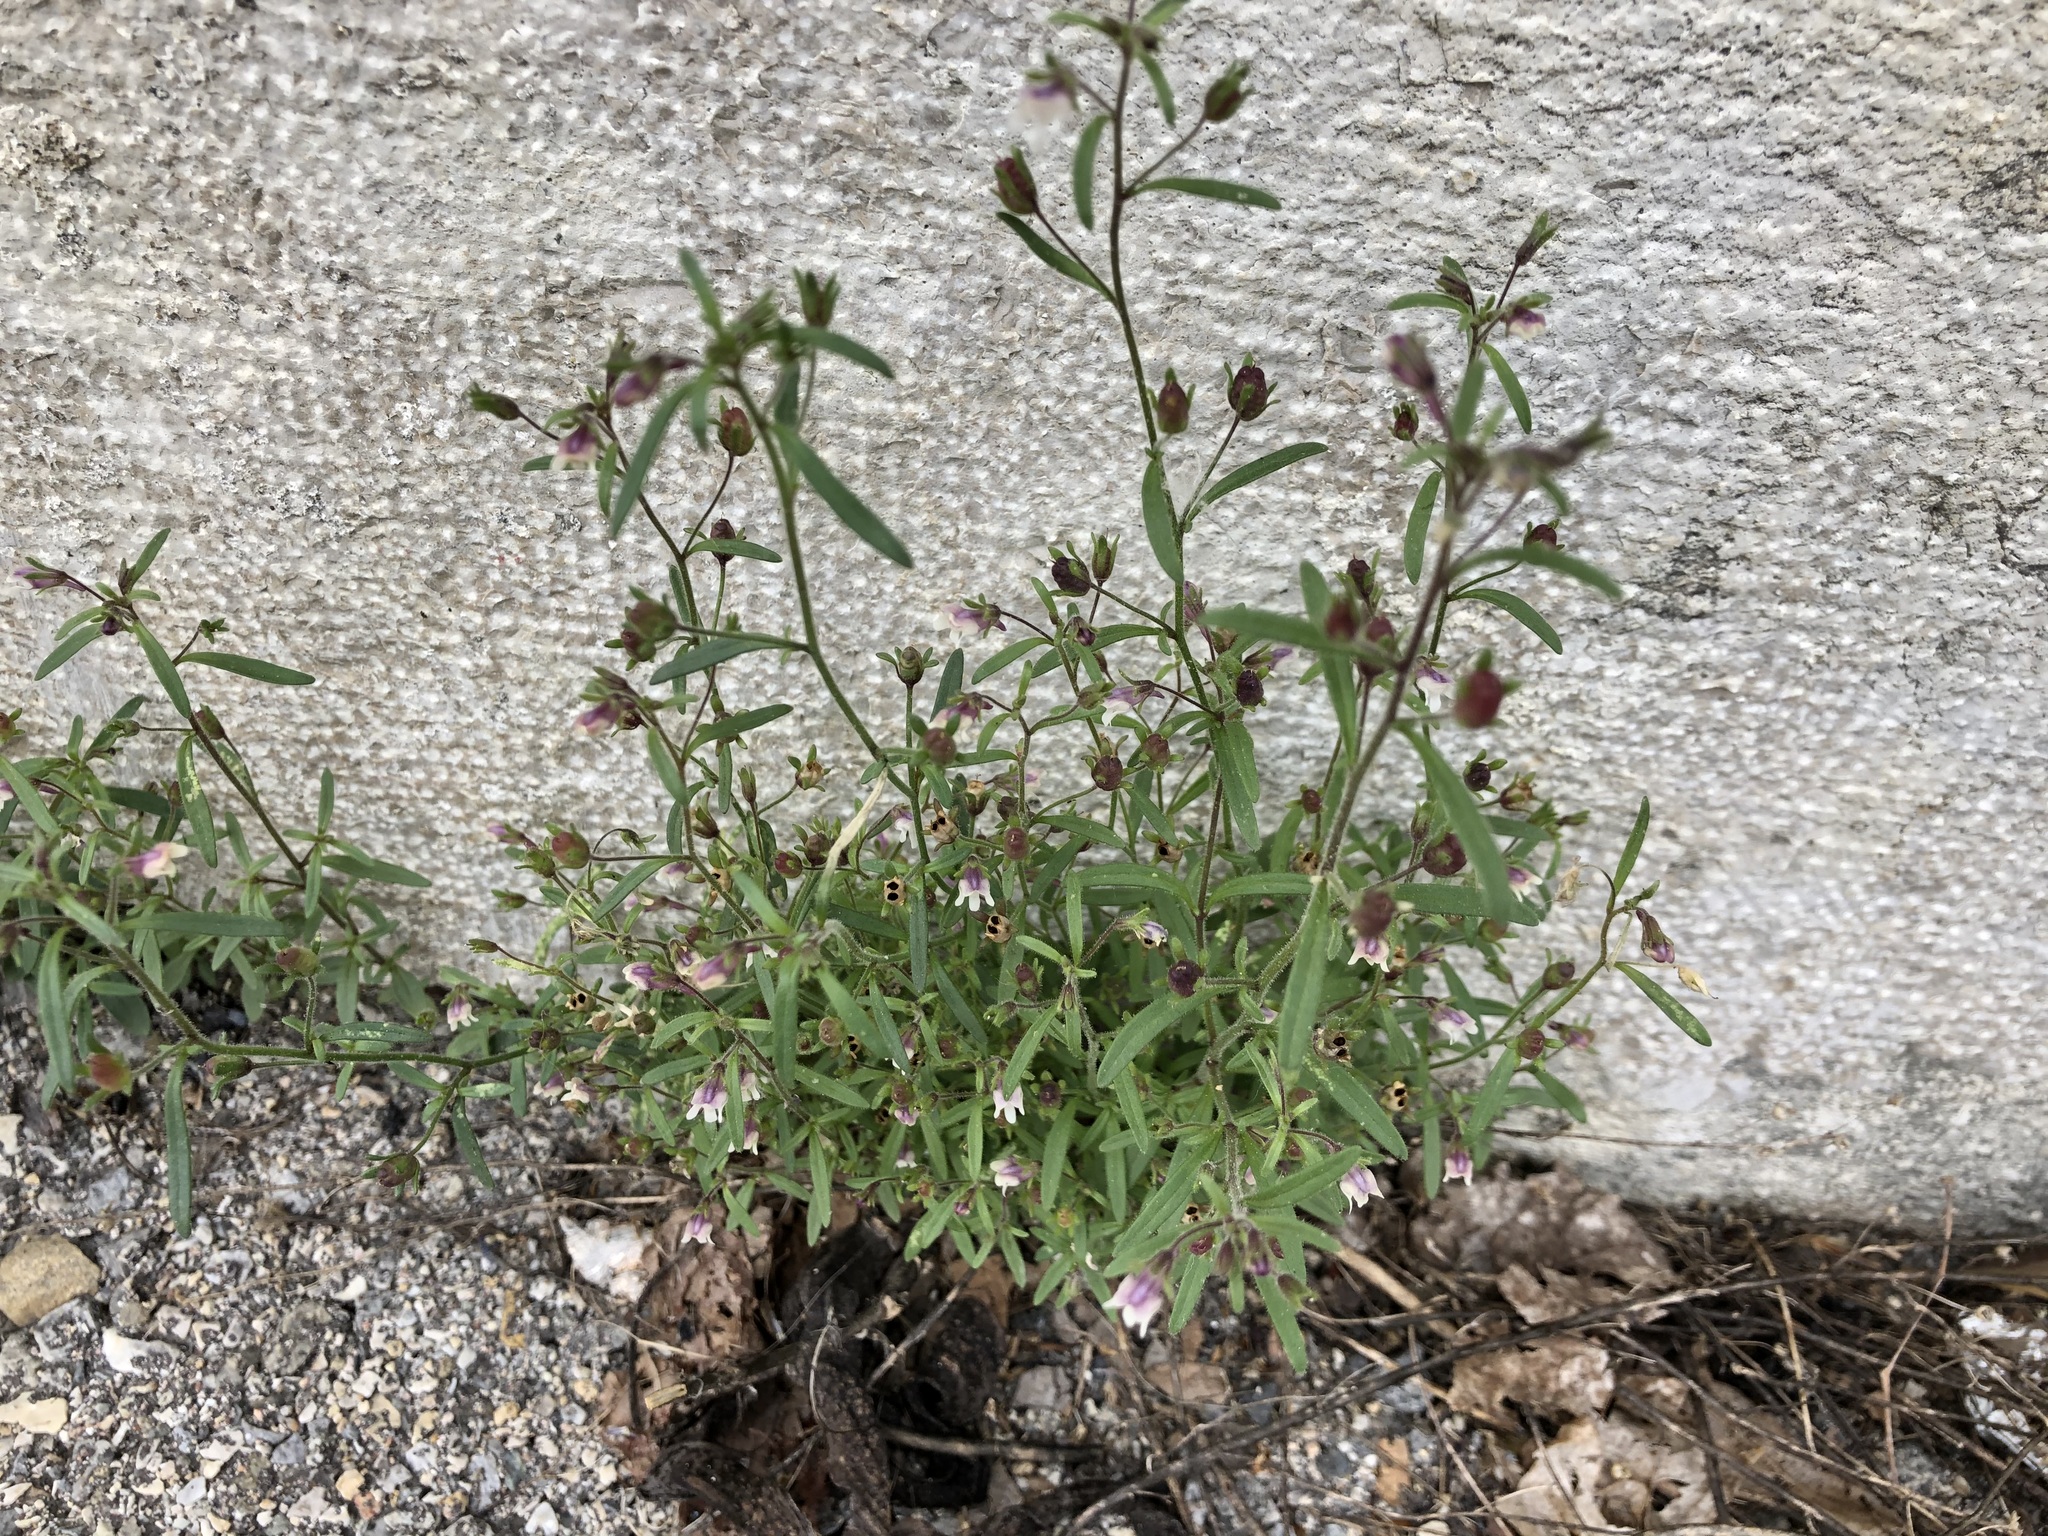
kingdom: Plantae
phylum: Tracheophyta
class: Magnoliopsida
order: Lamiales
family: Plantaginaceae
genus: Chaenorhinum
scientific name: Chaenorhinum minus
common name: Dwarf snapdragon
